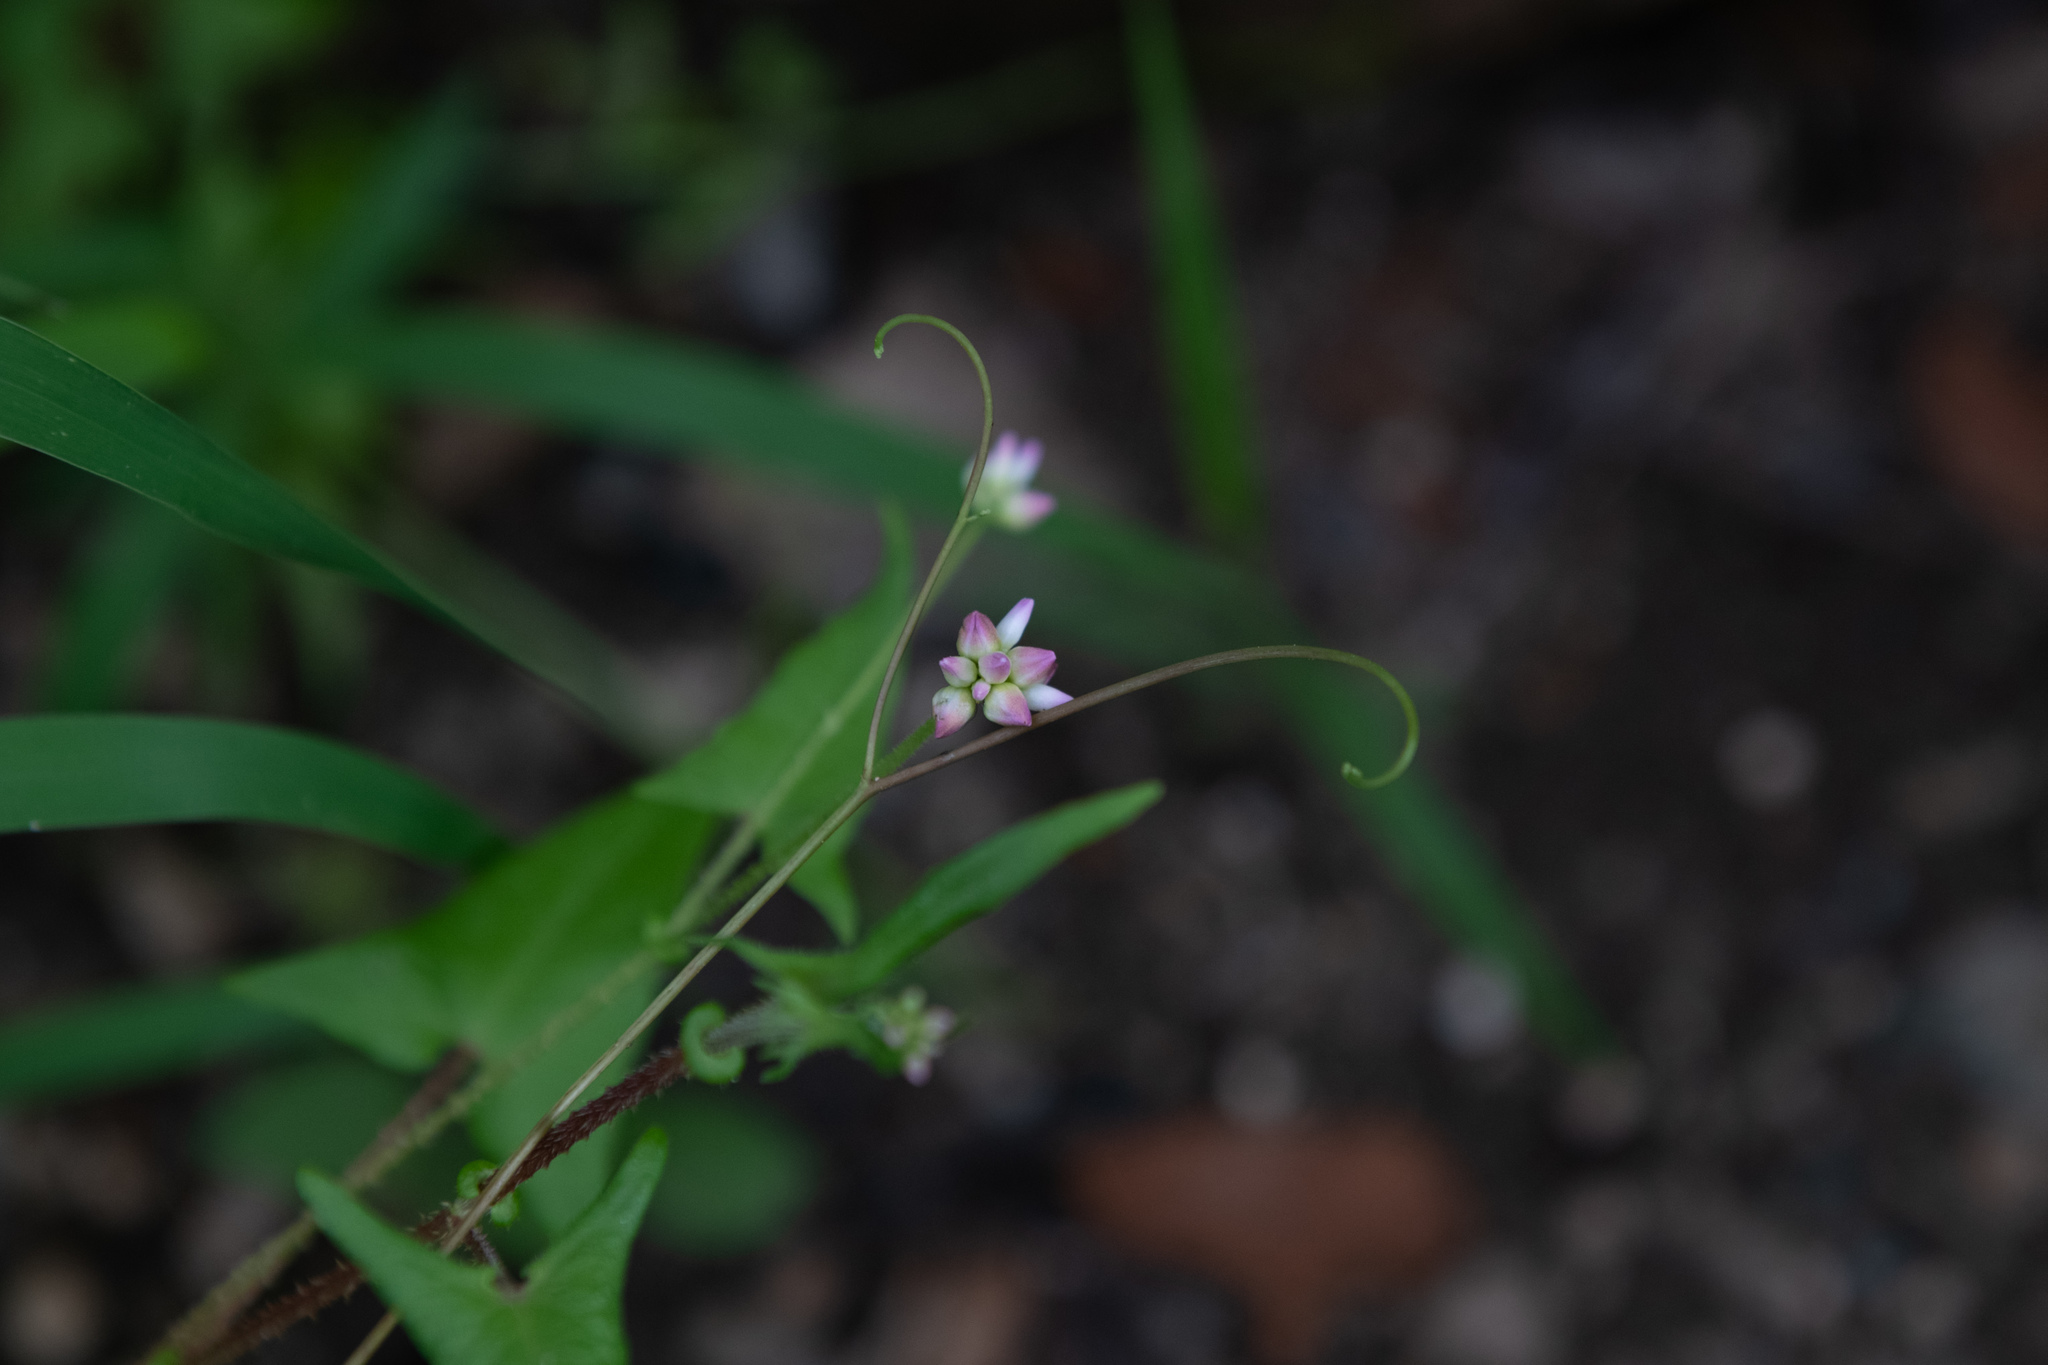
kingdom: Plantae
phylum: Tracheophyta
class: Magnoliopsida
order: Caryophyllales
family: Polygonaceae
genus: Persicaria
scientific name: Persicaria senticosa
